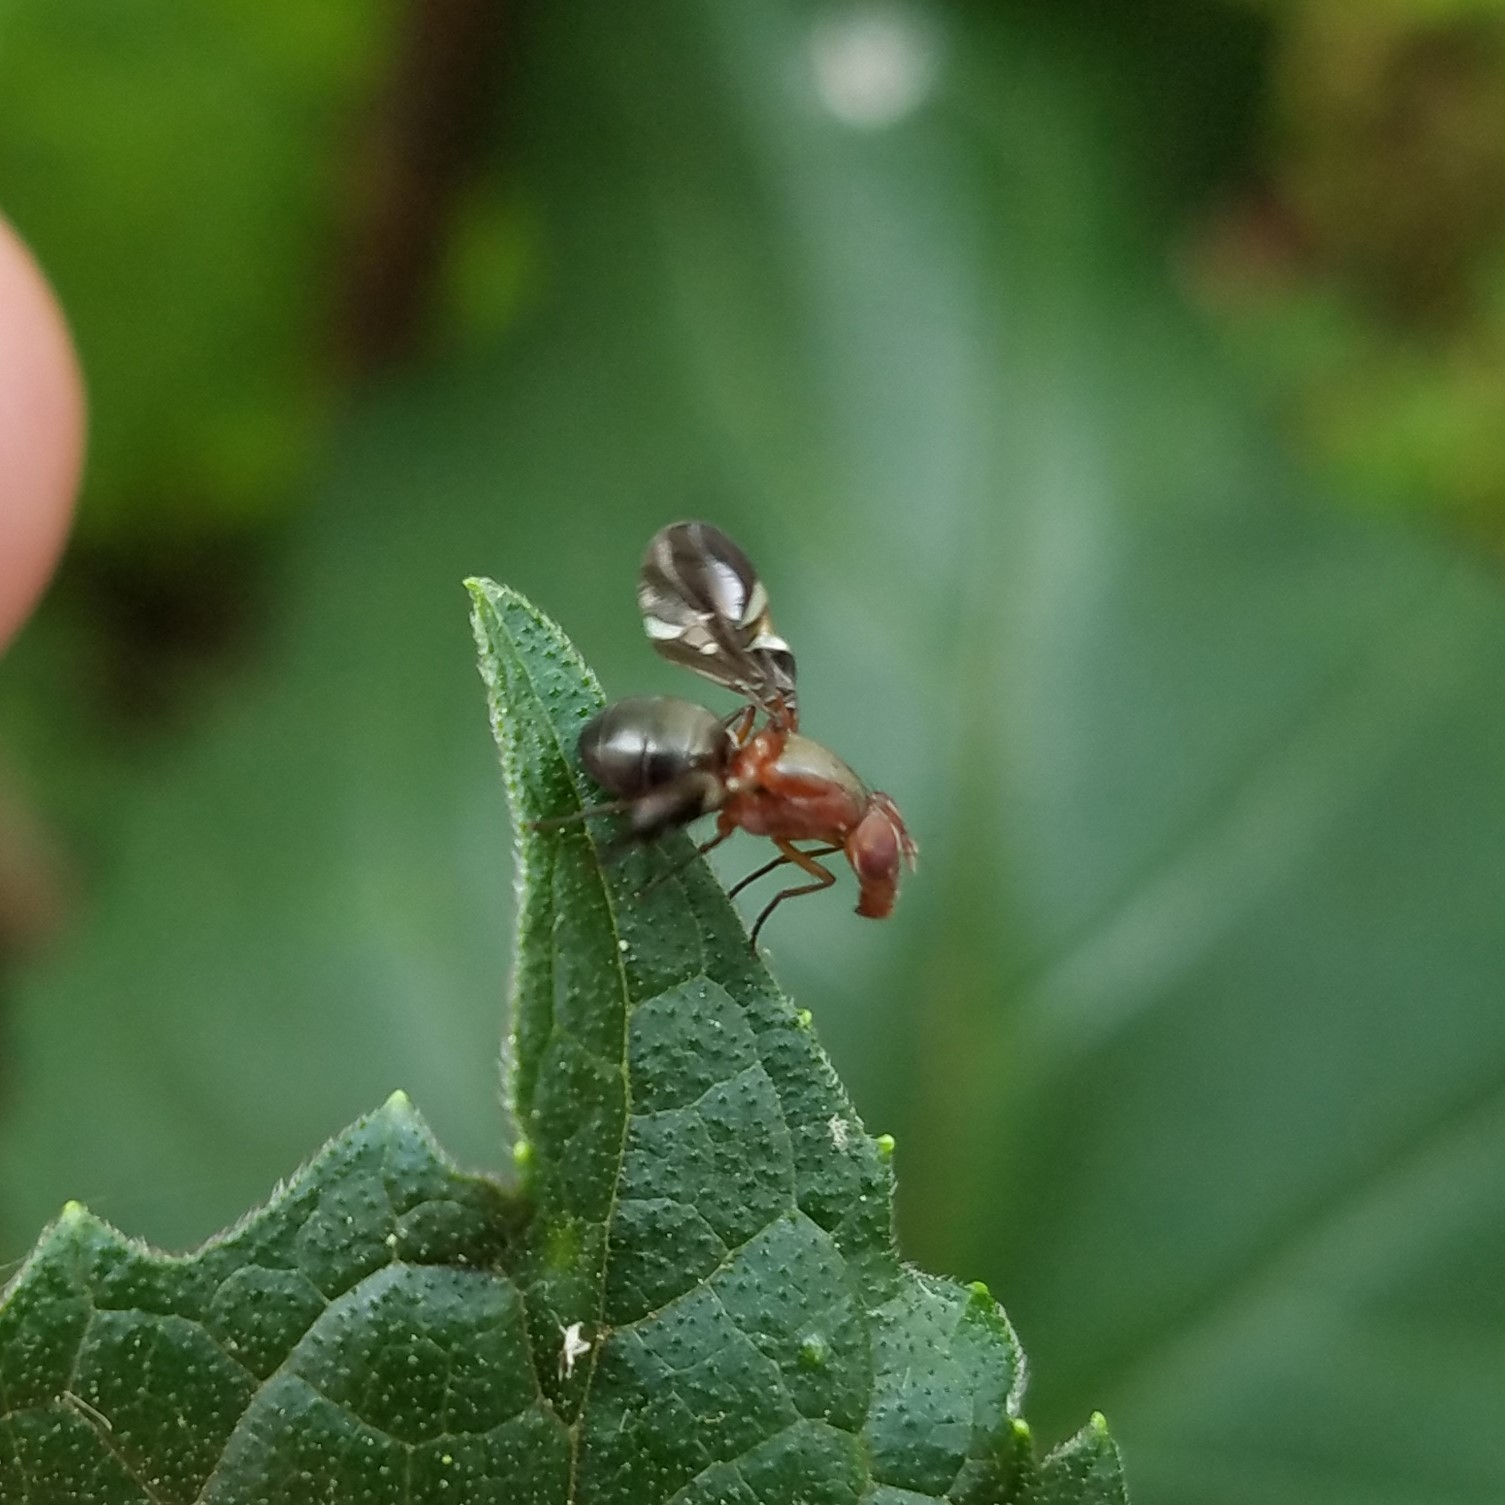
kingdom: Animalia
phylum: Arthropoda
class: Insecta
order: Diptera
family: Ulidiidae
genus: Delphinia
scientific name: Delphinia picta
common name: Common picture-winged fly
